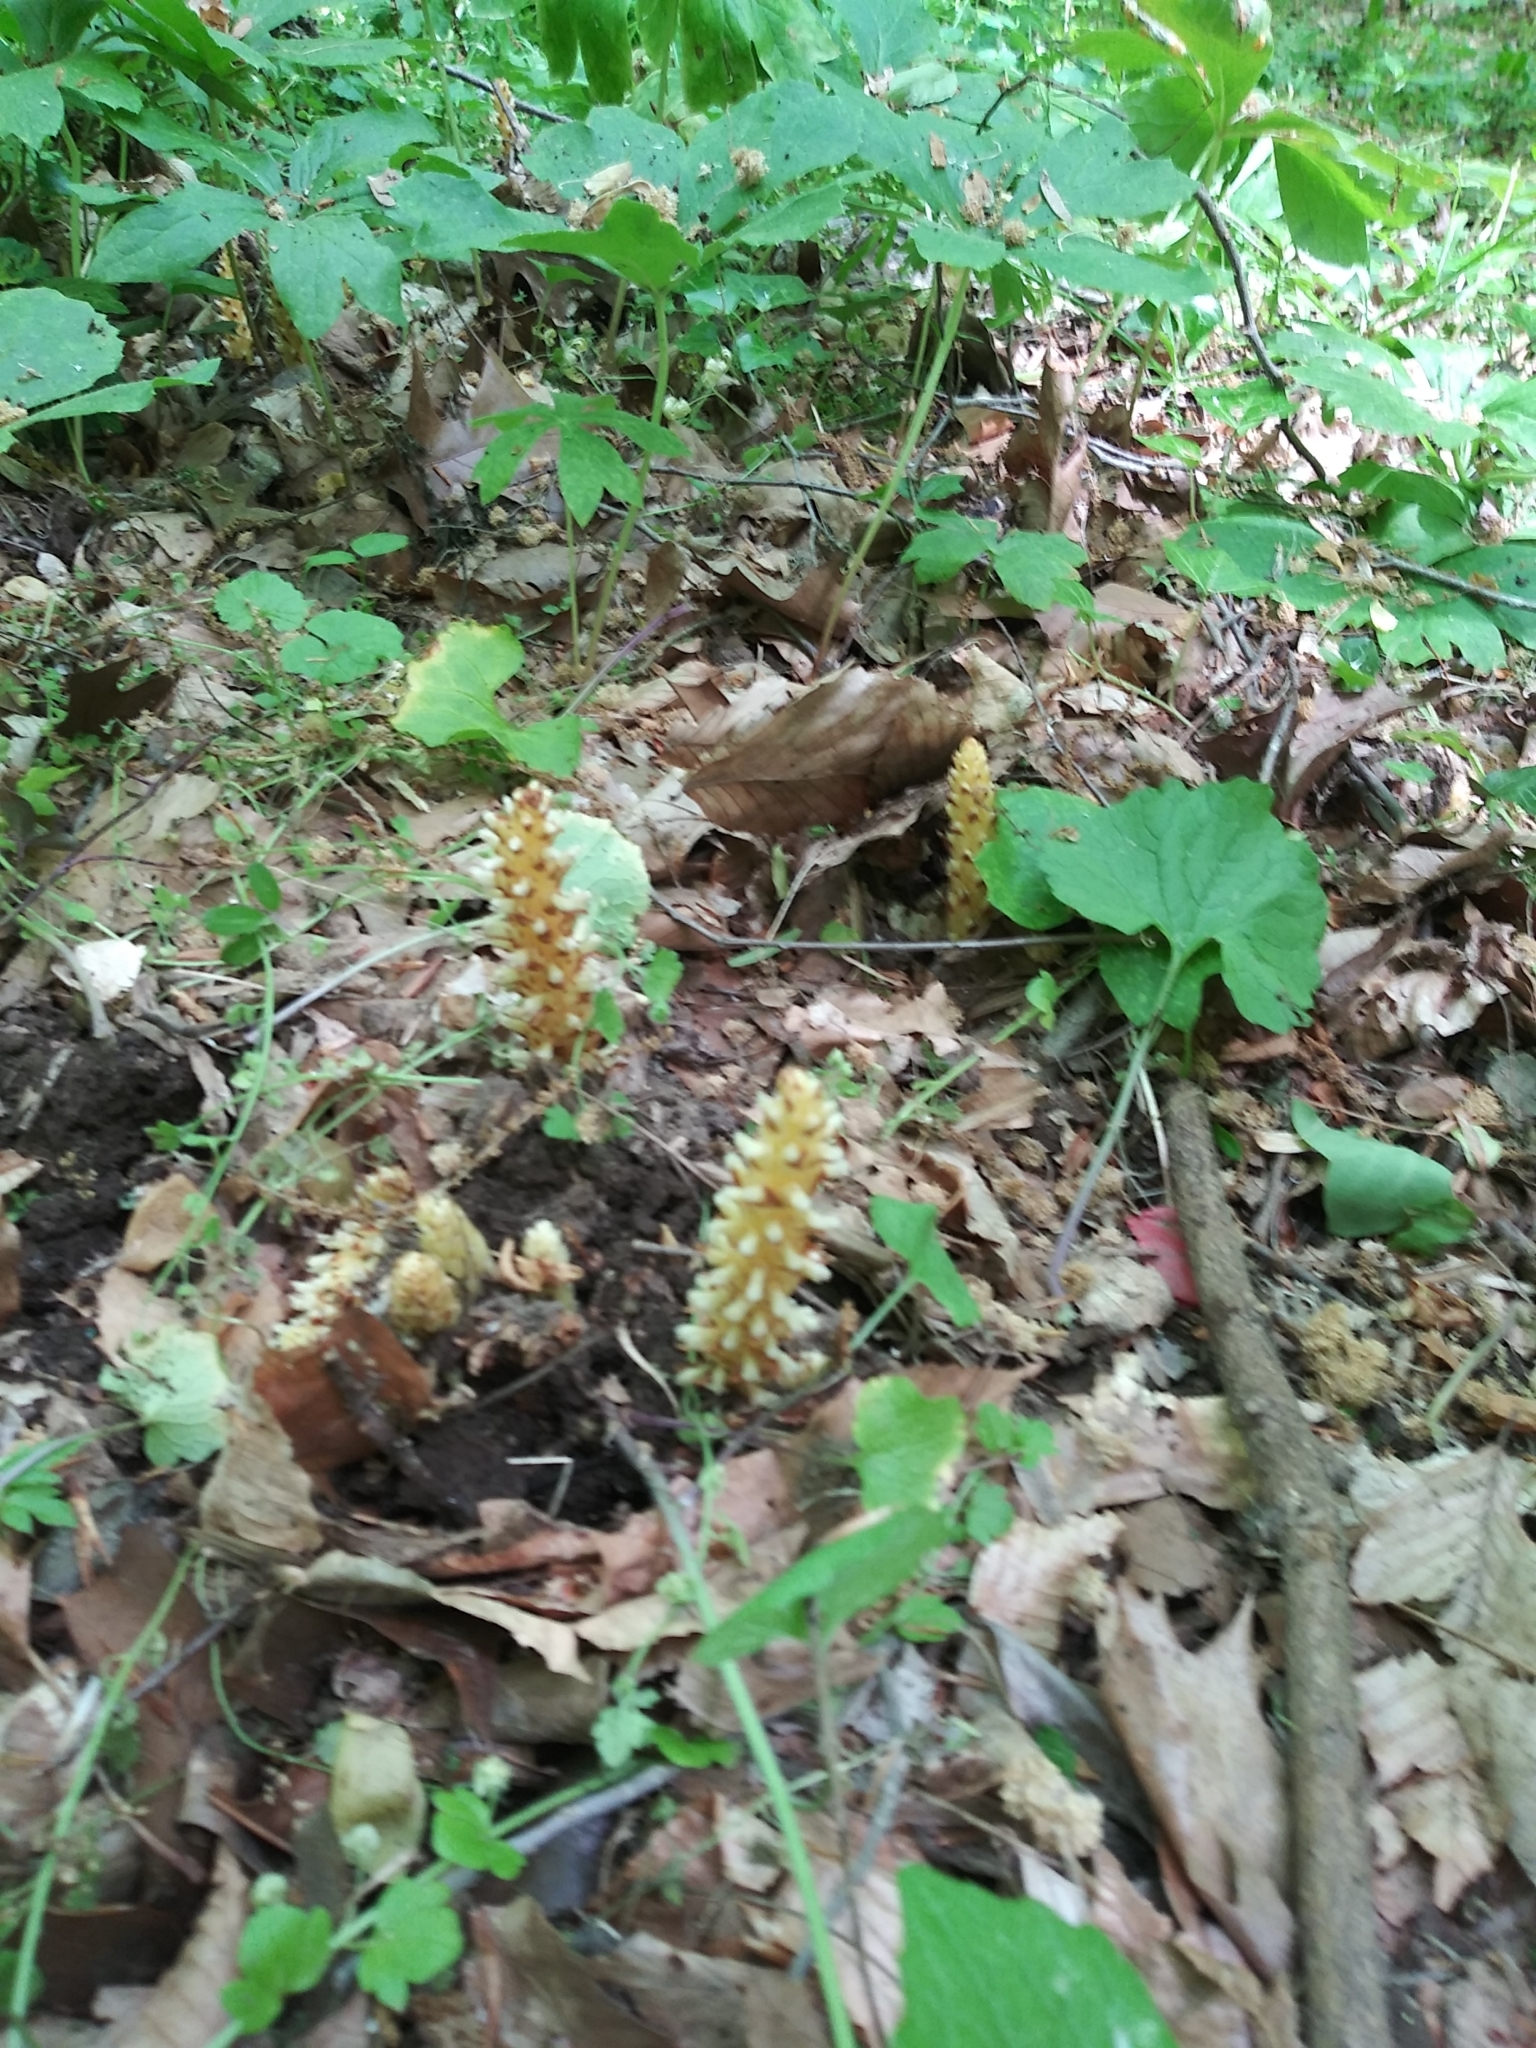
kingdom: Plantae
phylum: Tracheophyta
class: Magnoliopsida
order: Lamiales
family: Orobanchaceae
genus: Conopholis
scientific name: Conopholis americana
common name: American cancer-root
